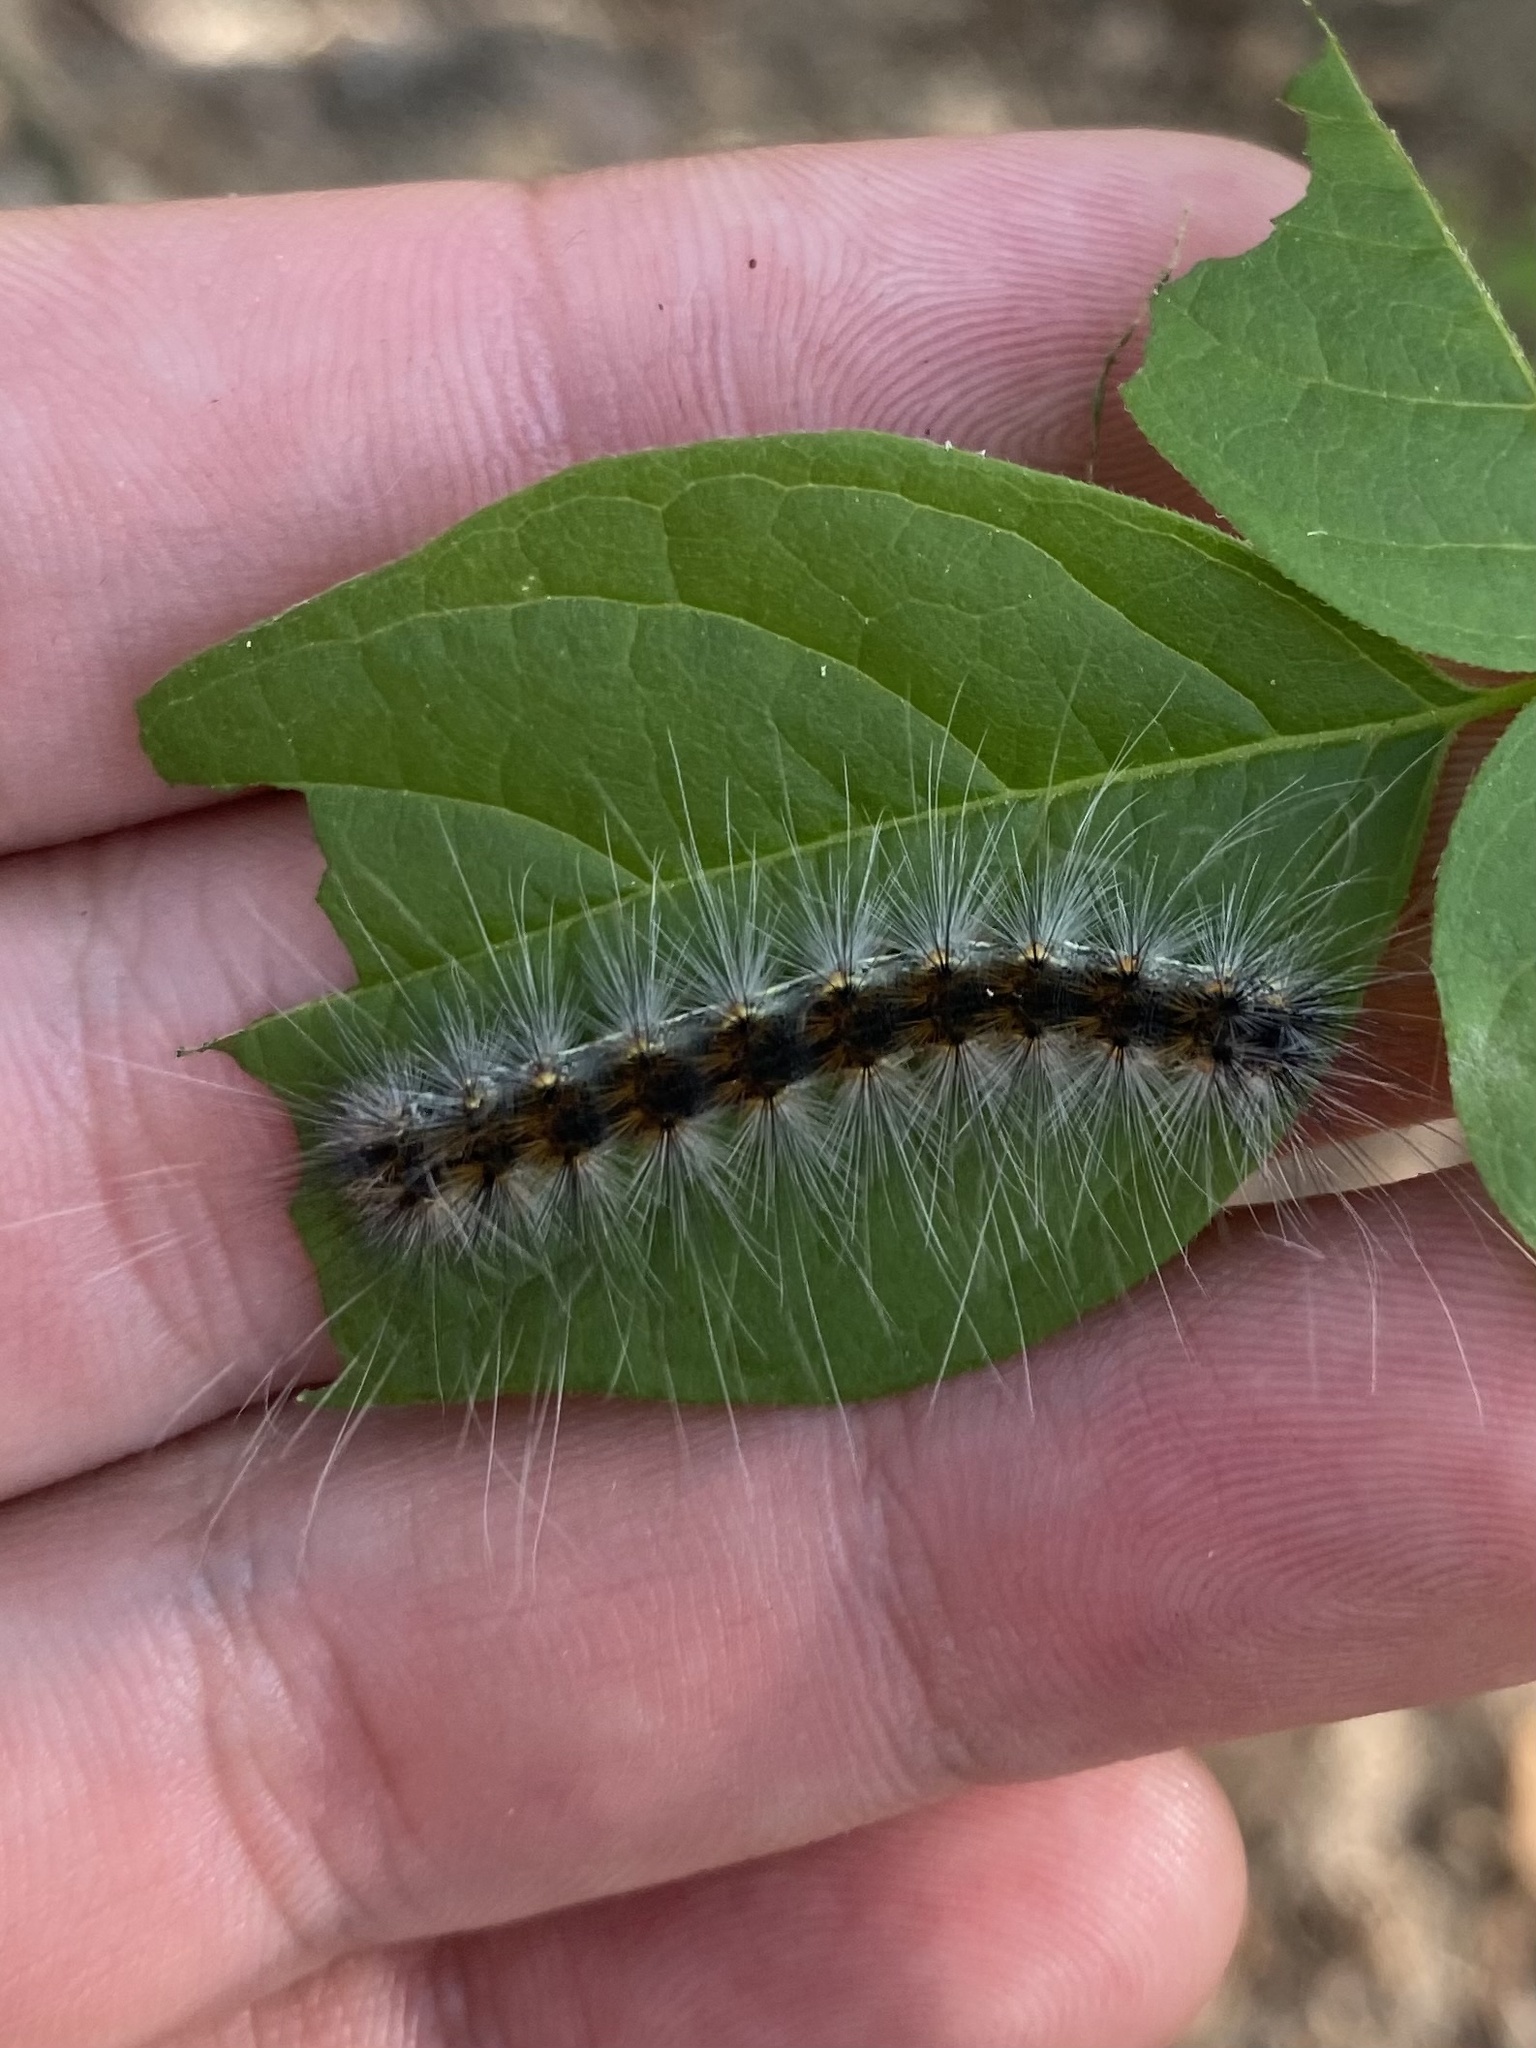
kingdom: Animalia
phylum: Arthropoda
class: Insecta
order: Lepidoptera
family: Erebidae
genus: Hyphantria
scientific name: Hyphantria cunea
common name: American white moth
